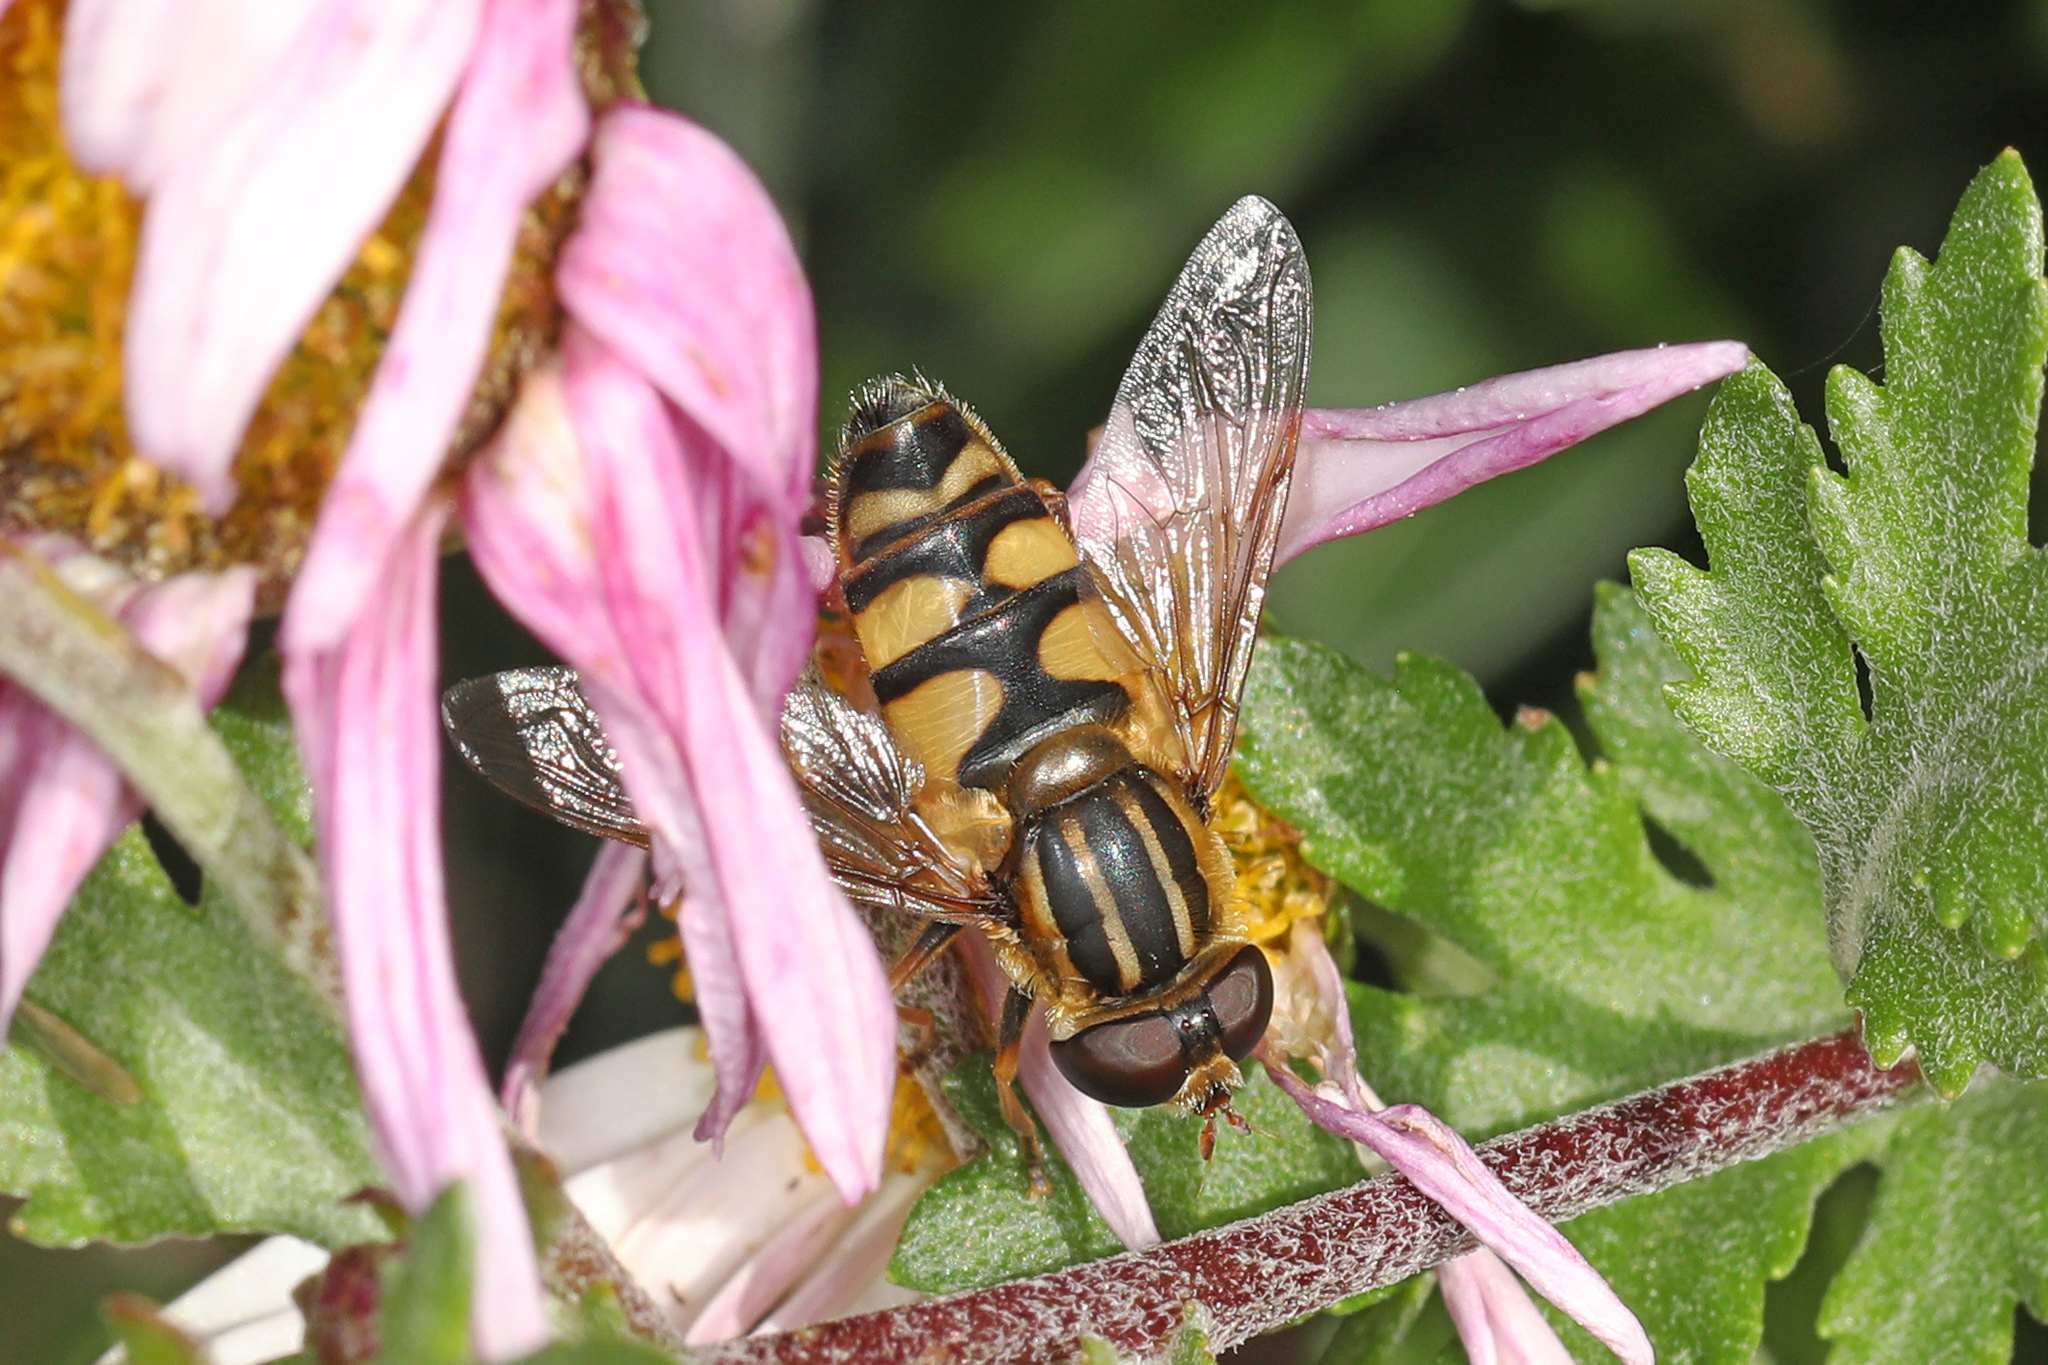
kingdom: Animalia
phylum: Arthropoda
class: Insecta
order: Diptera
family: Syrphidae
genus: Helophilus
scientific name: Helophilus fasciatus
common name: Narrow-headed marsh fly
